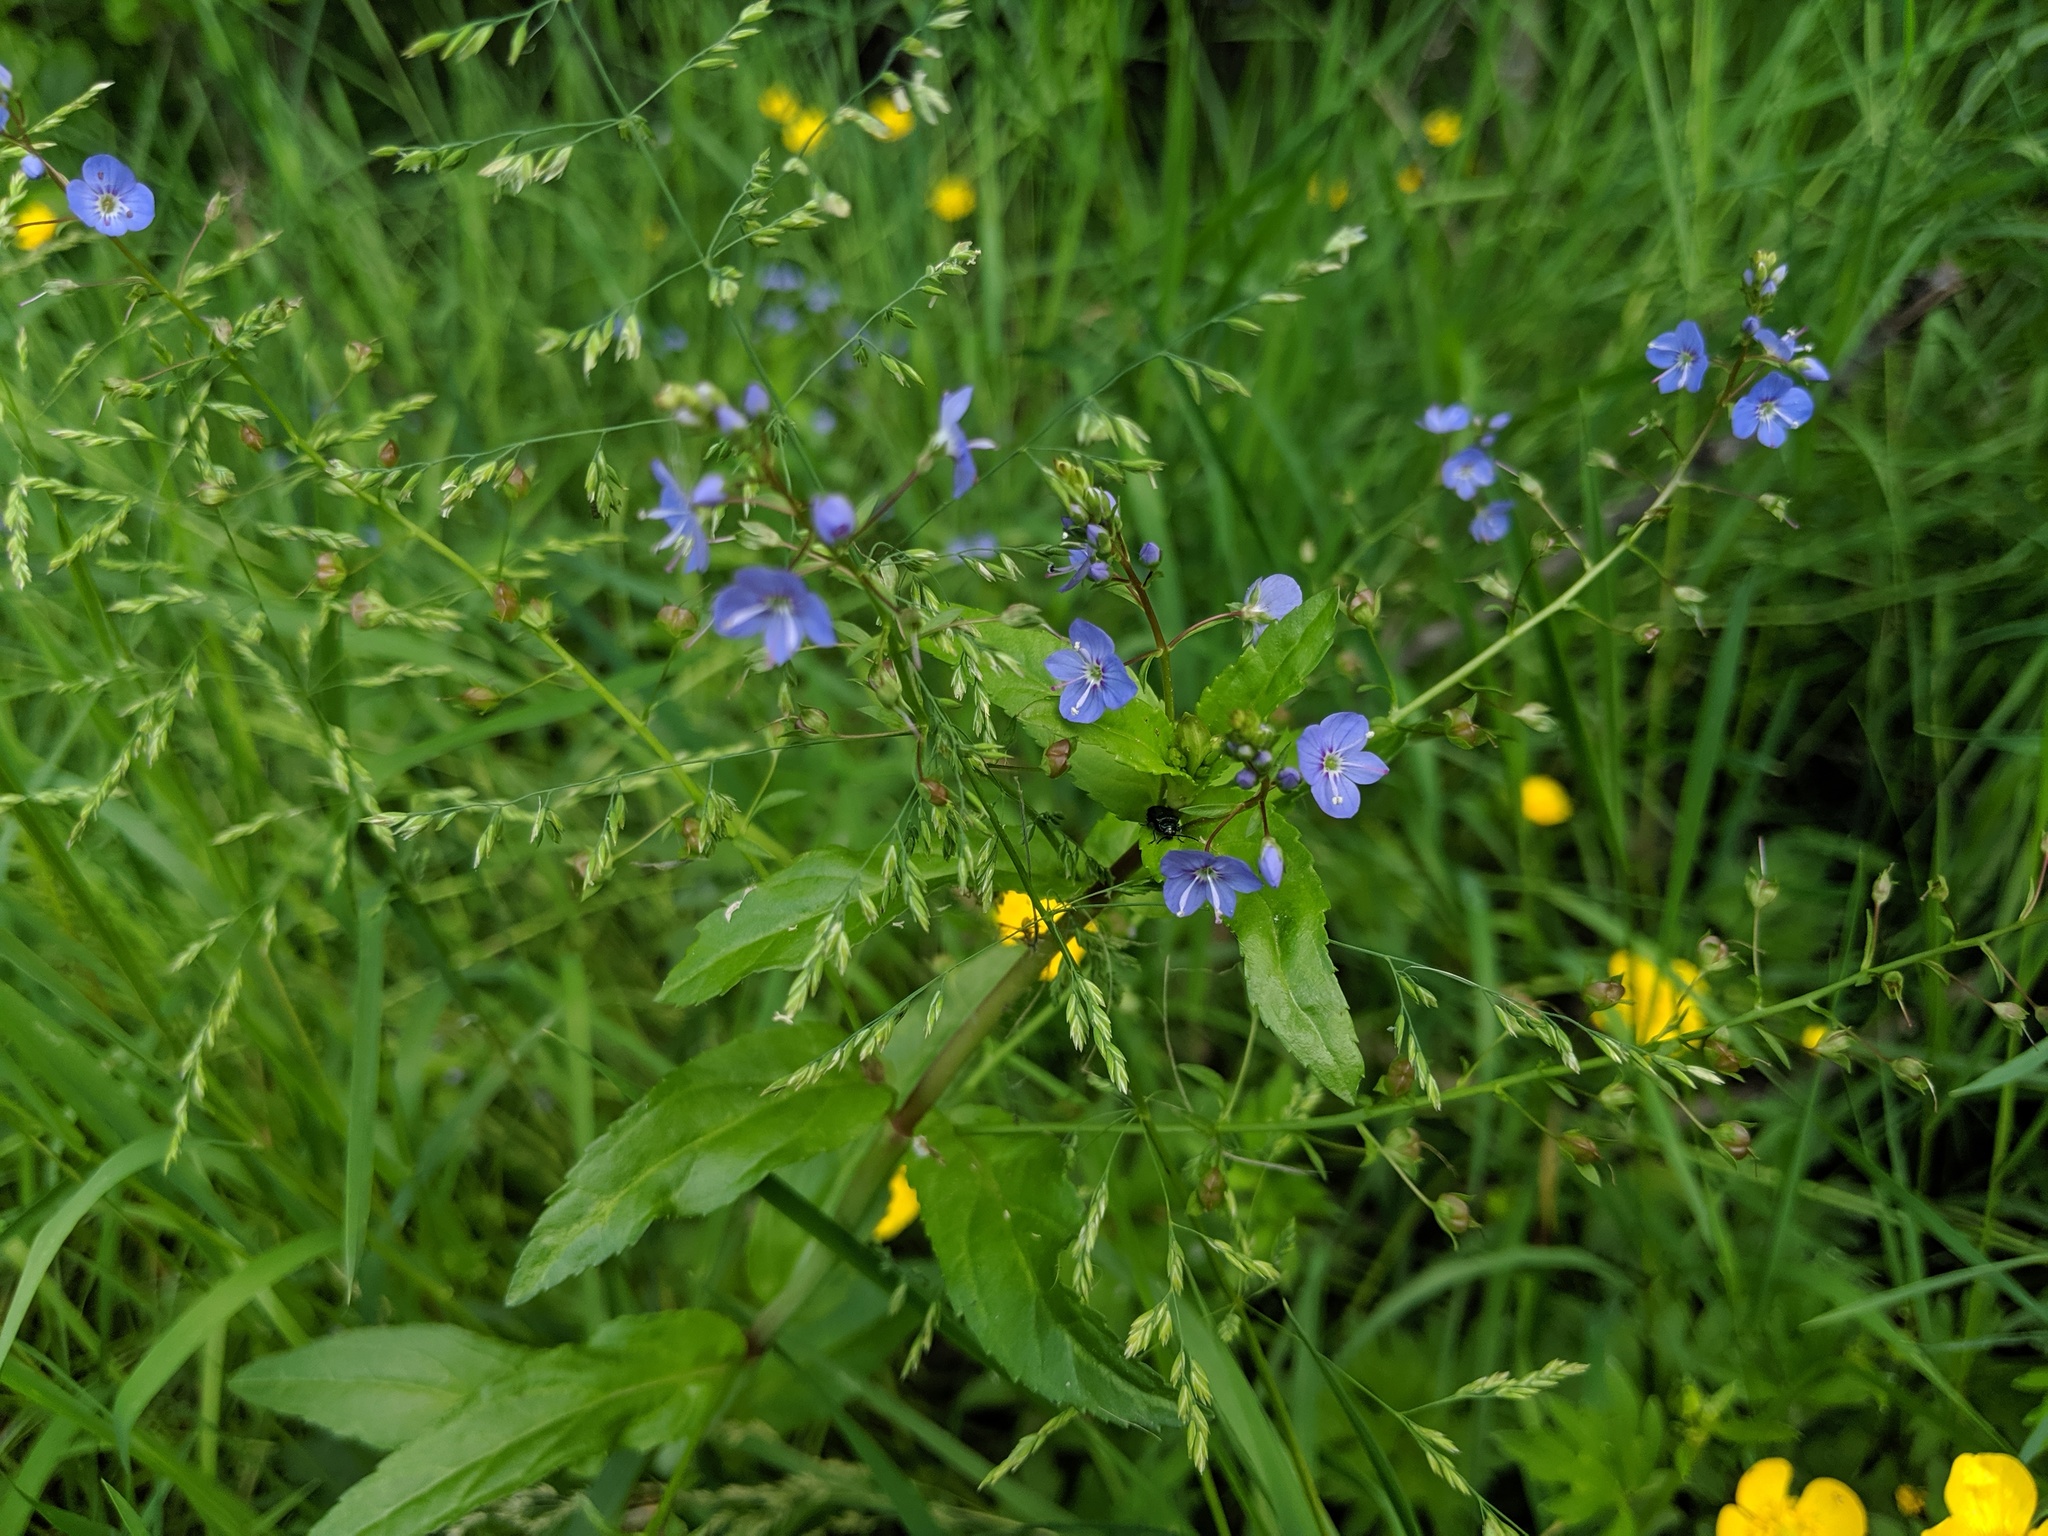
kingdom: Plantae
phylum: Tracheophyta
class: Magnoliopsida
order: Lamiales
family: Plantaginaceae
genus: Veronica
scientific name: Veronica americana
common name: American brooklime
